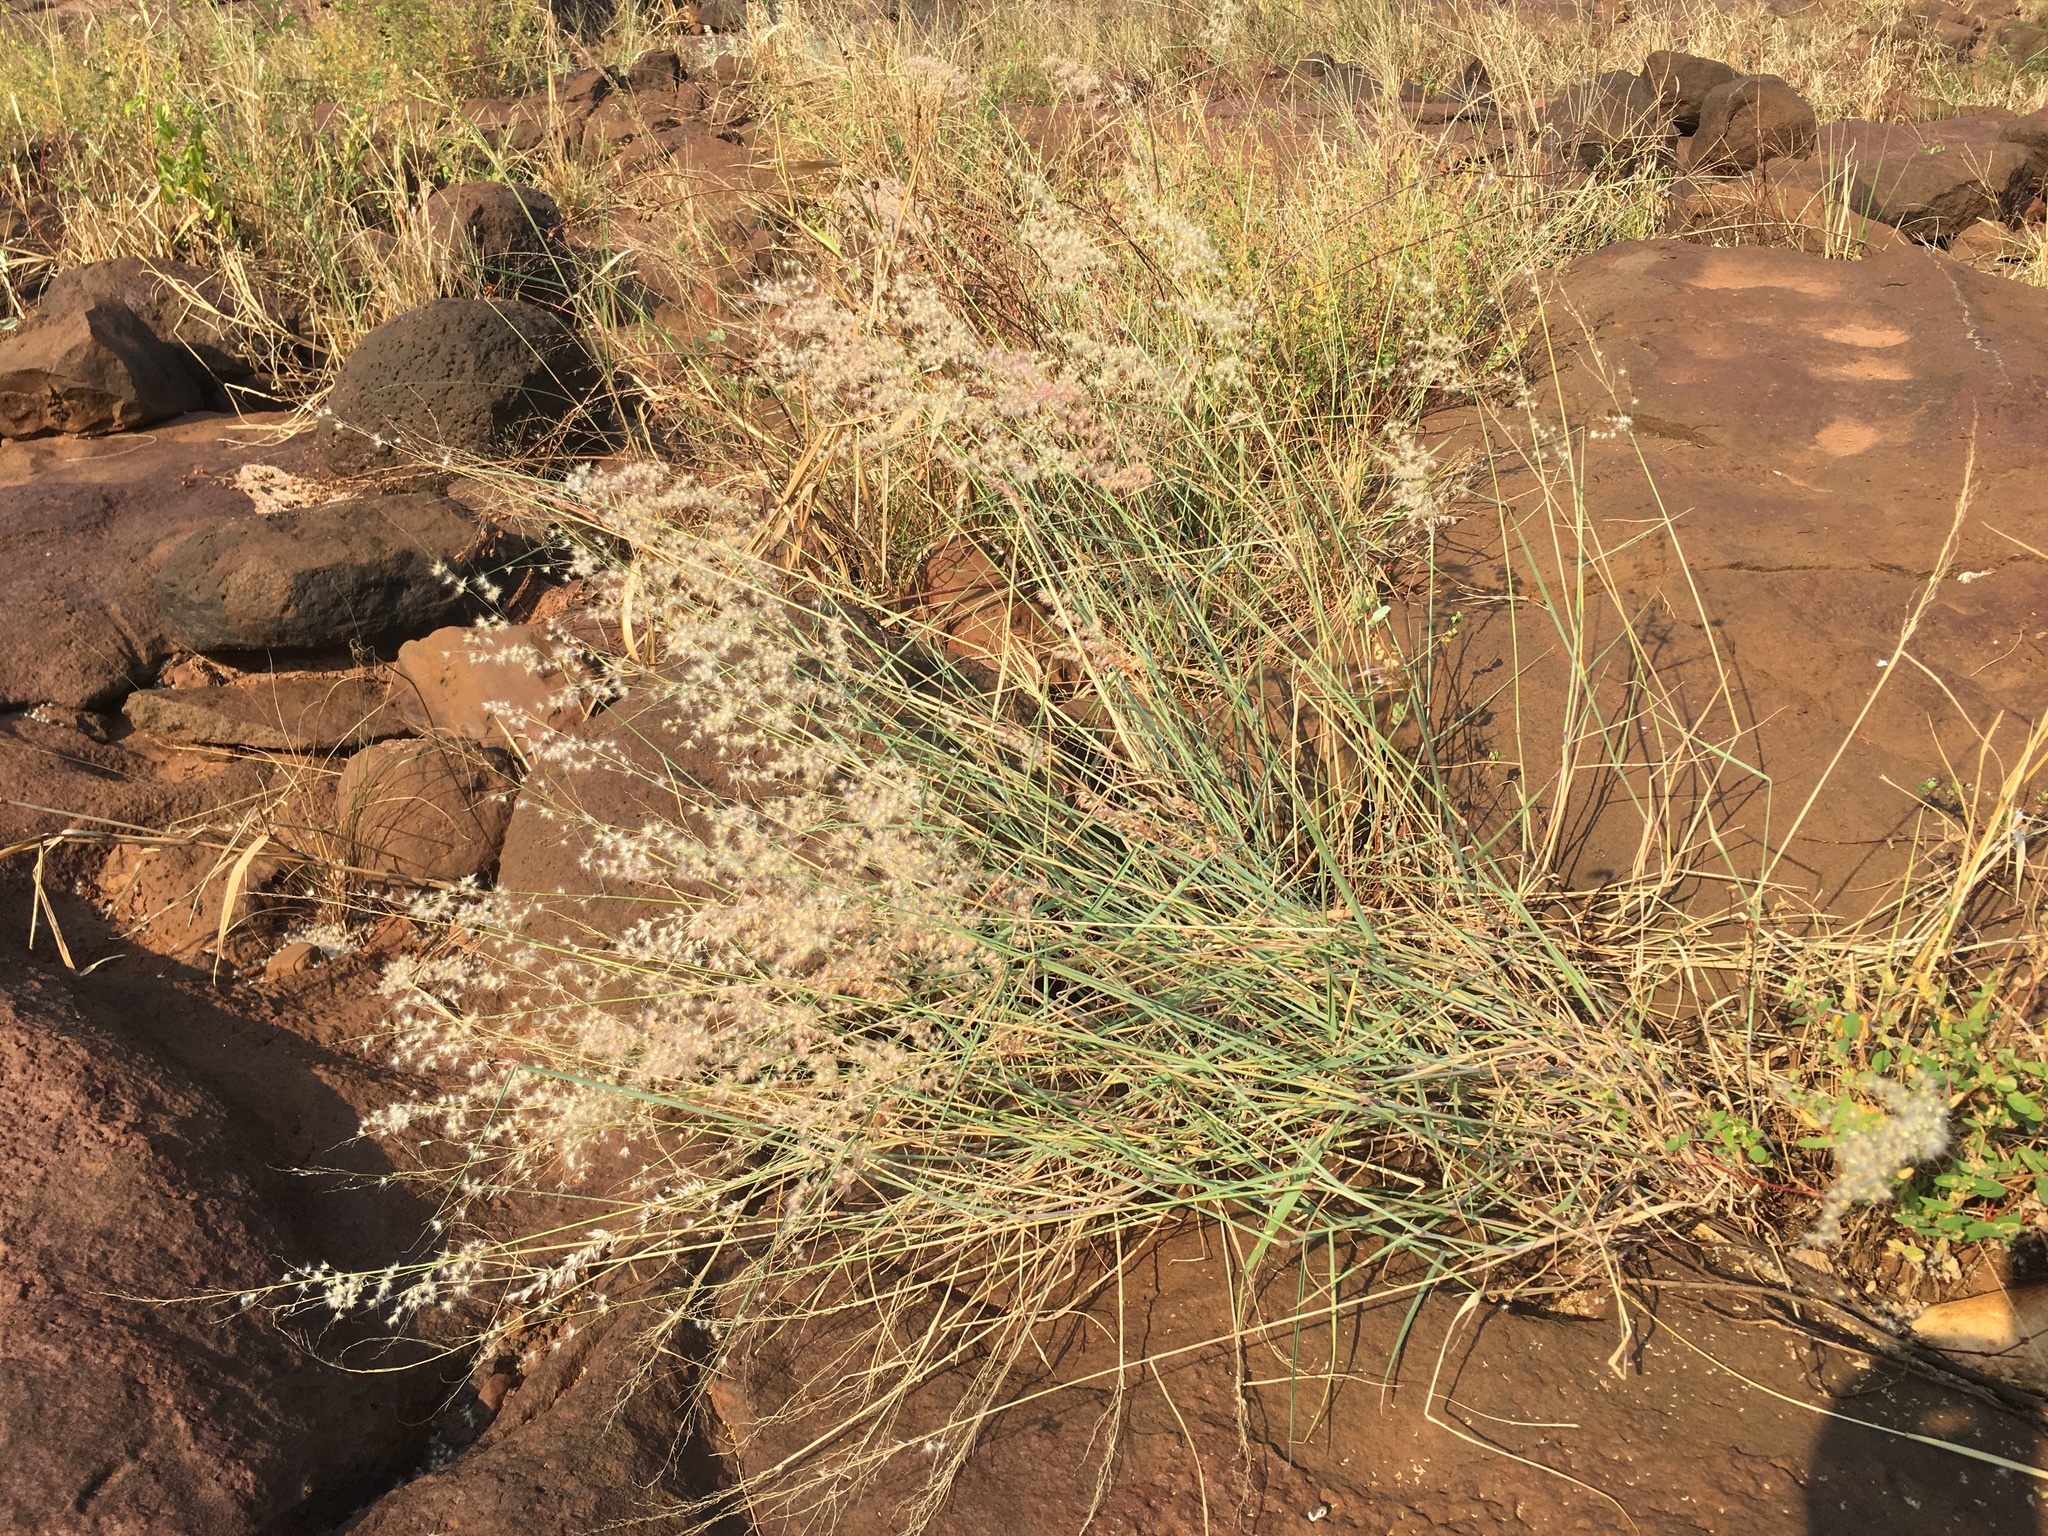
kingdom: Plantae
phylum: Tracheophyta
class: Liliopsida
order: Poales
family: Poaceae
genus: Melinis
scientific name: Melinis repens
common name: Rose natal grass
